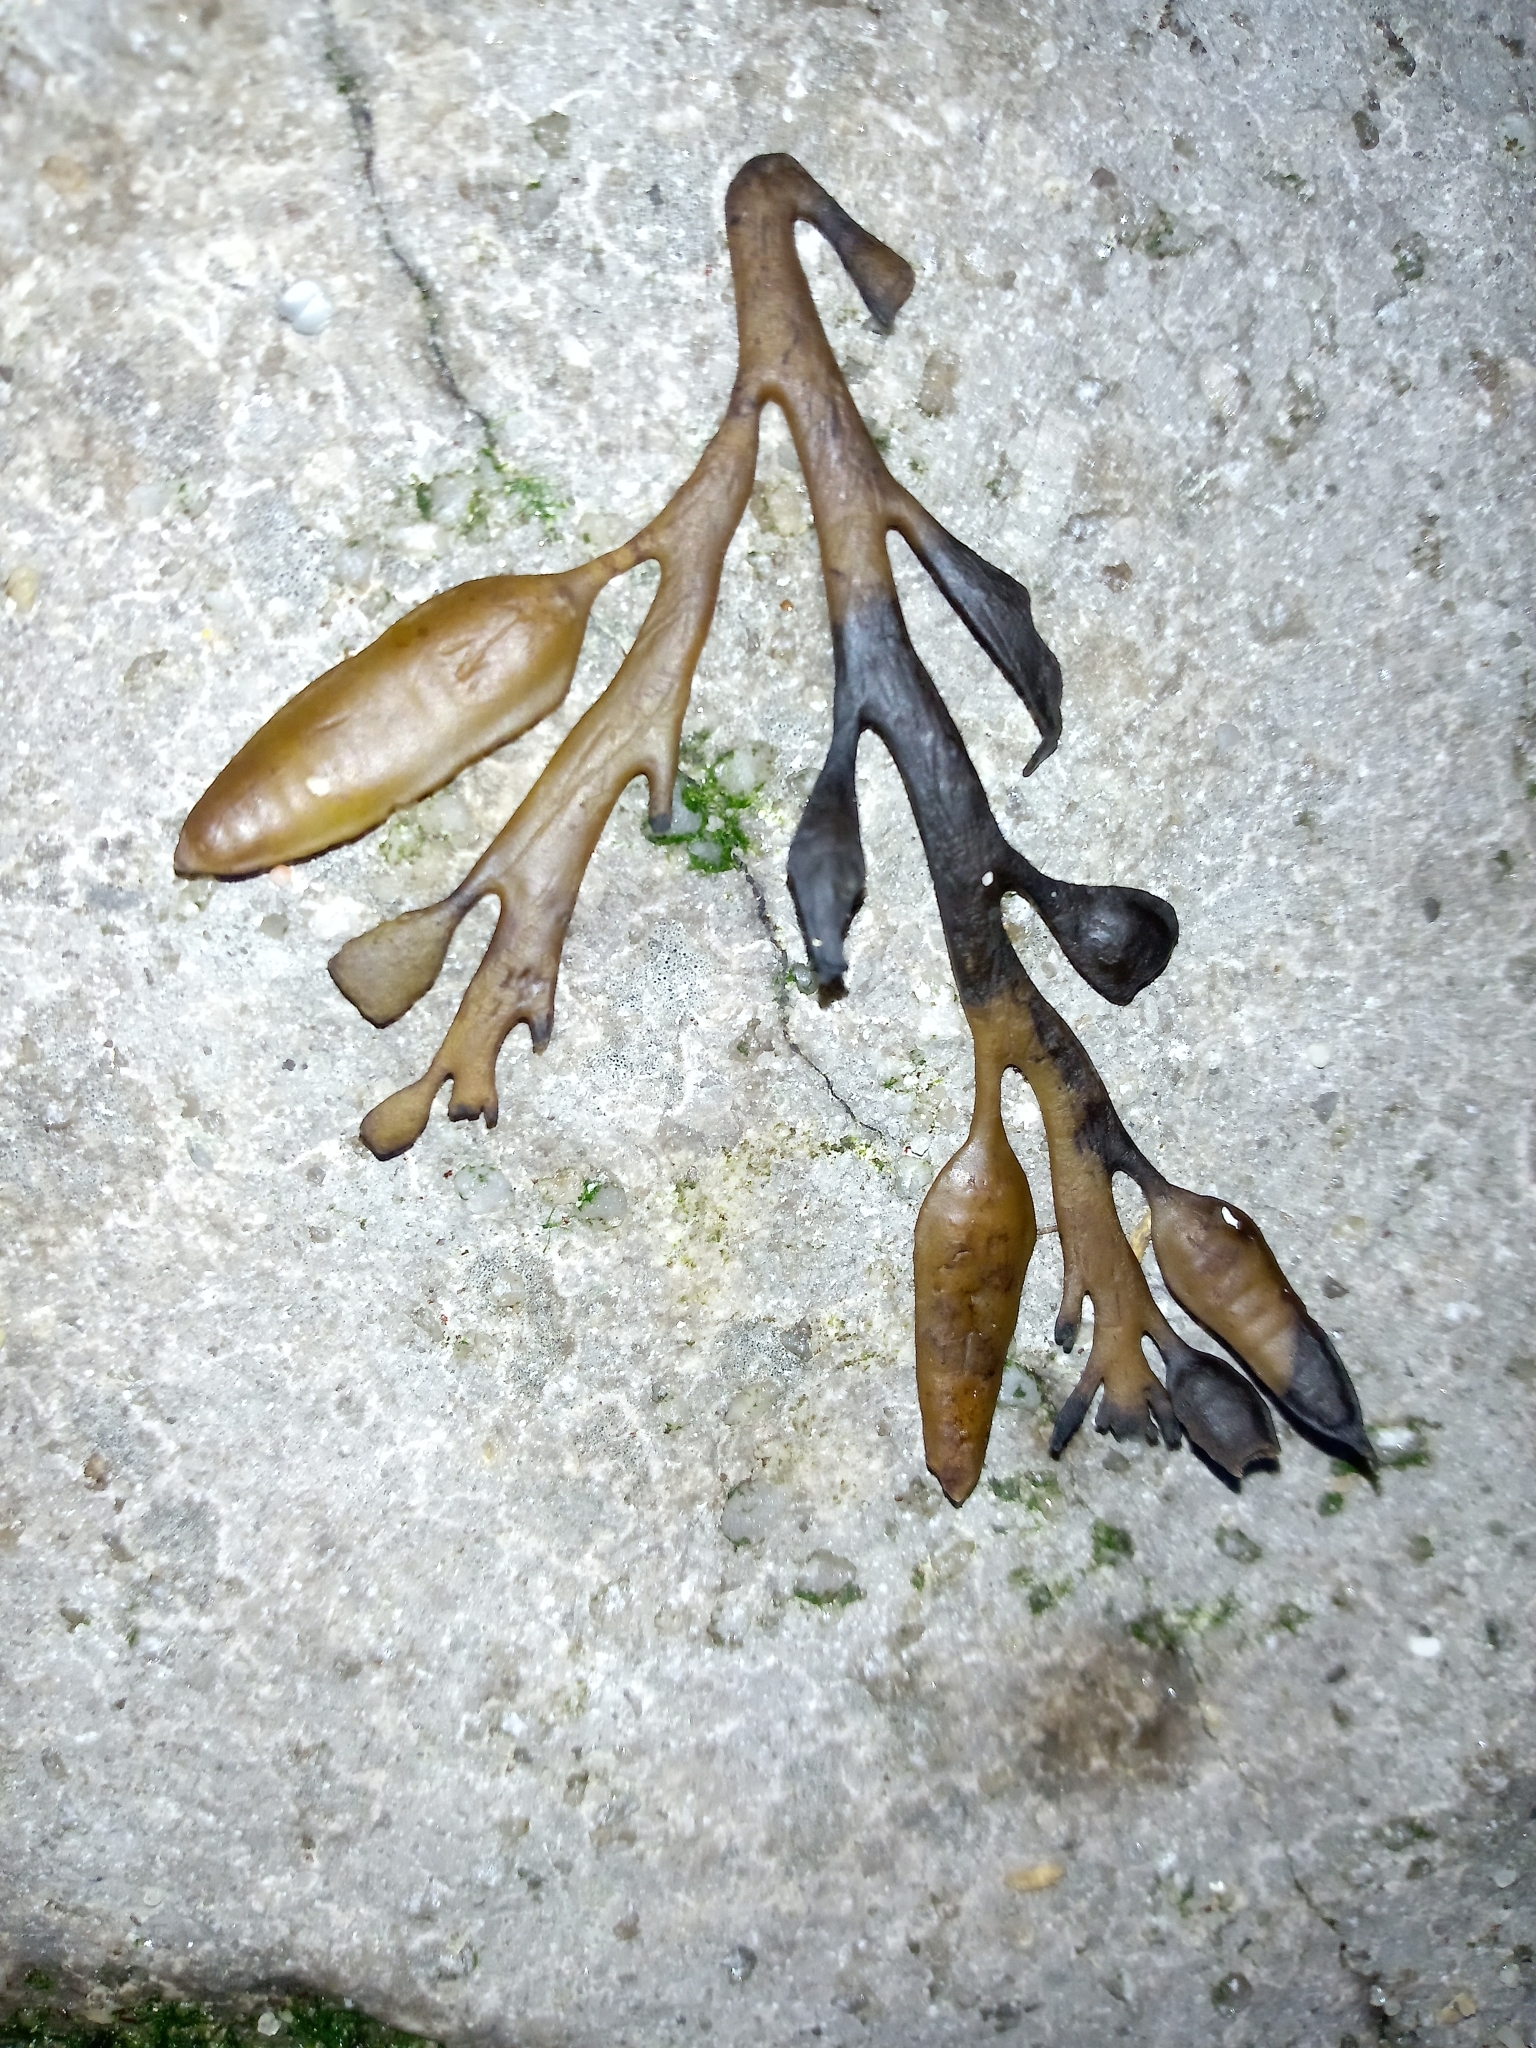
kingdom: Chromista
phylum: Ochrophyta
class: Phaeophyceae
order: Fucales
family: Sargassaceae
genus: Halidrys
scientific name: Halidrys siliquosa
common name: Sea oak
